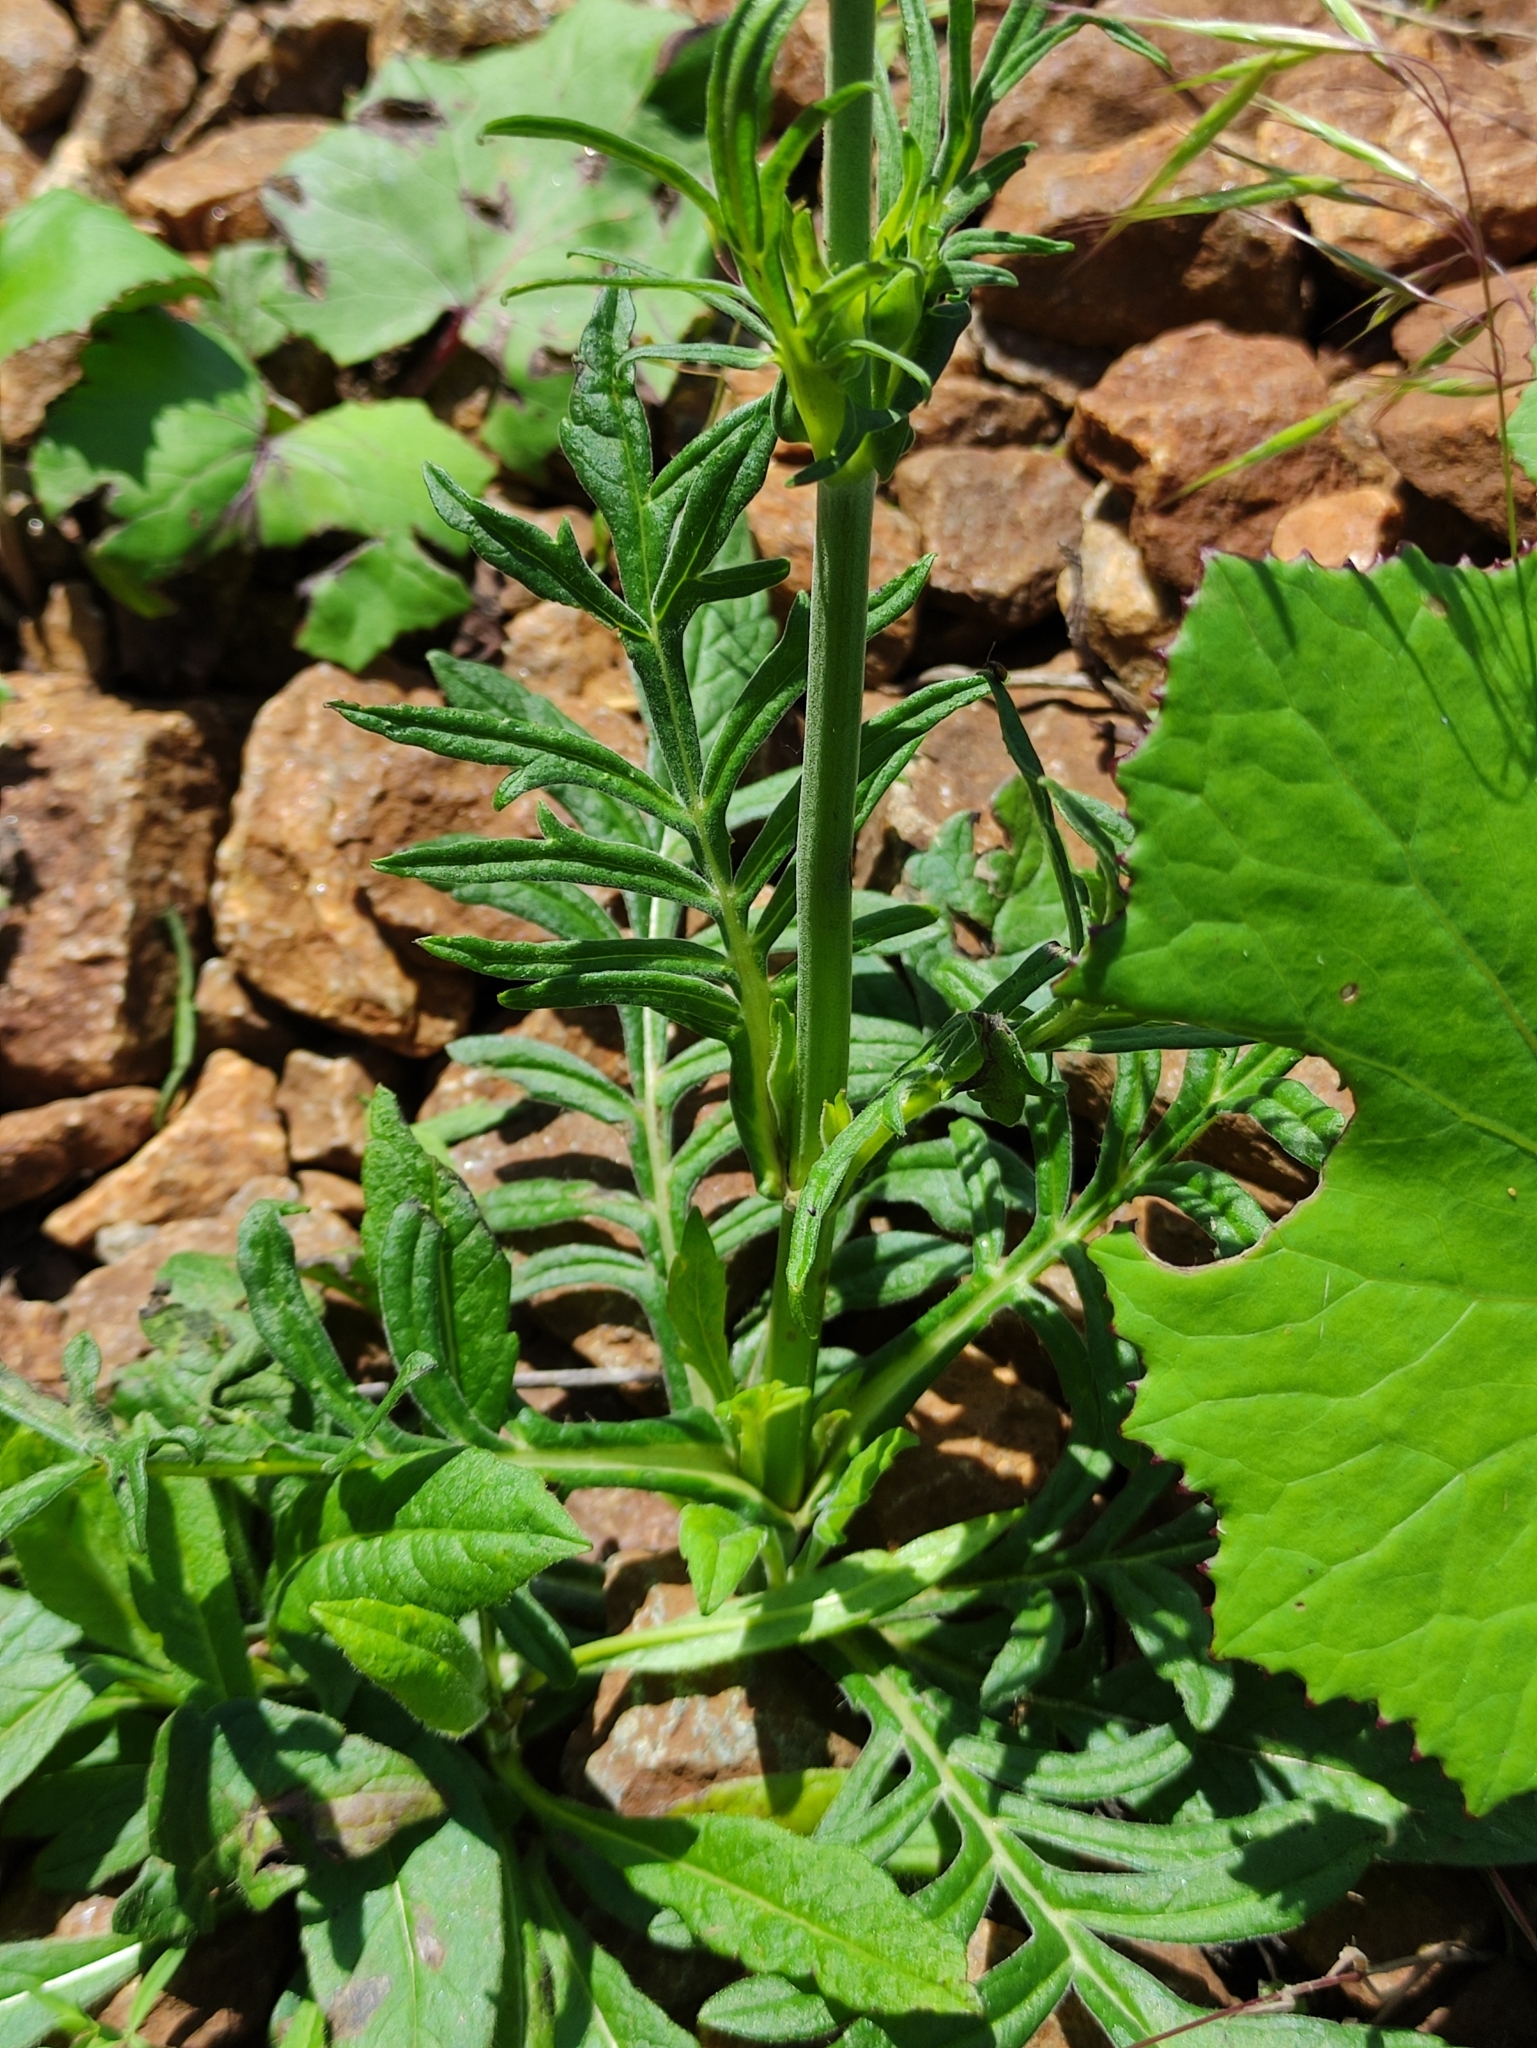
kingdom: Plantae
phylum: Tracheophyta
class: Magnoliopsida
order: Dipsacales
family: Caprifoliaceae
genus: Knautia
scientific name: Knautia arvensis
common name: Field scabiosa
